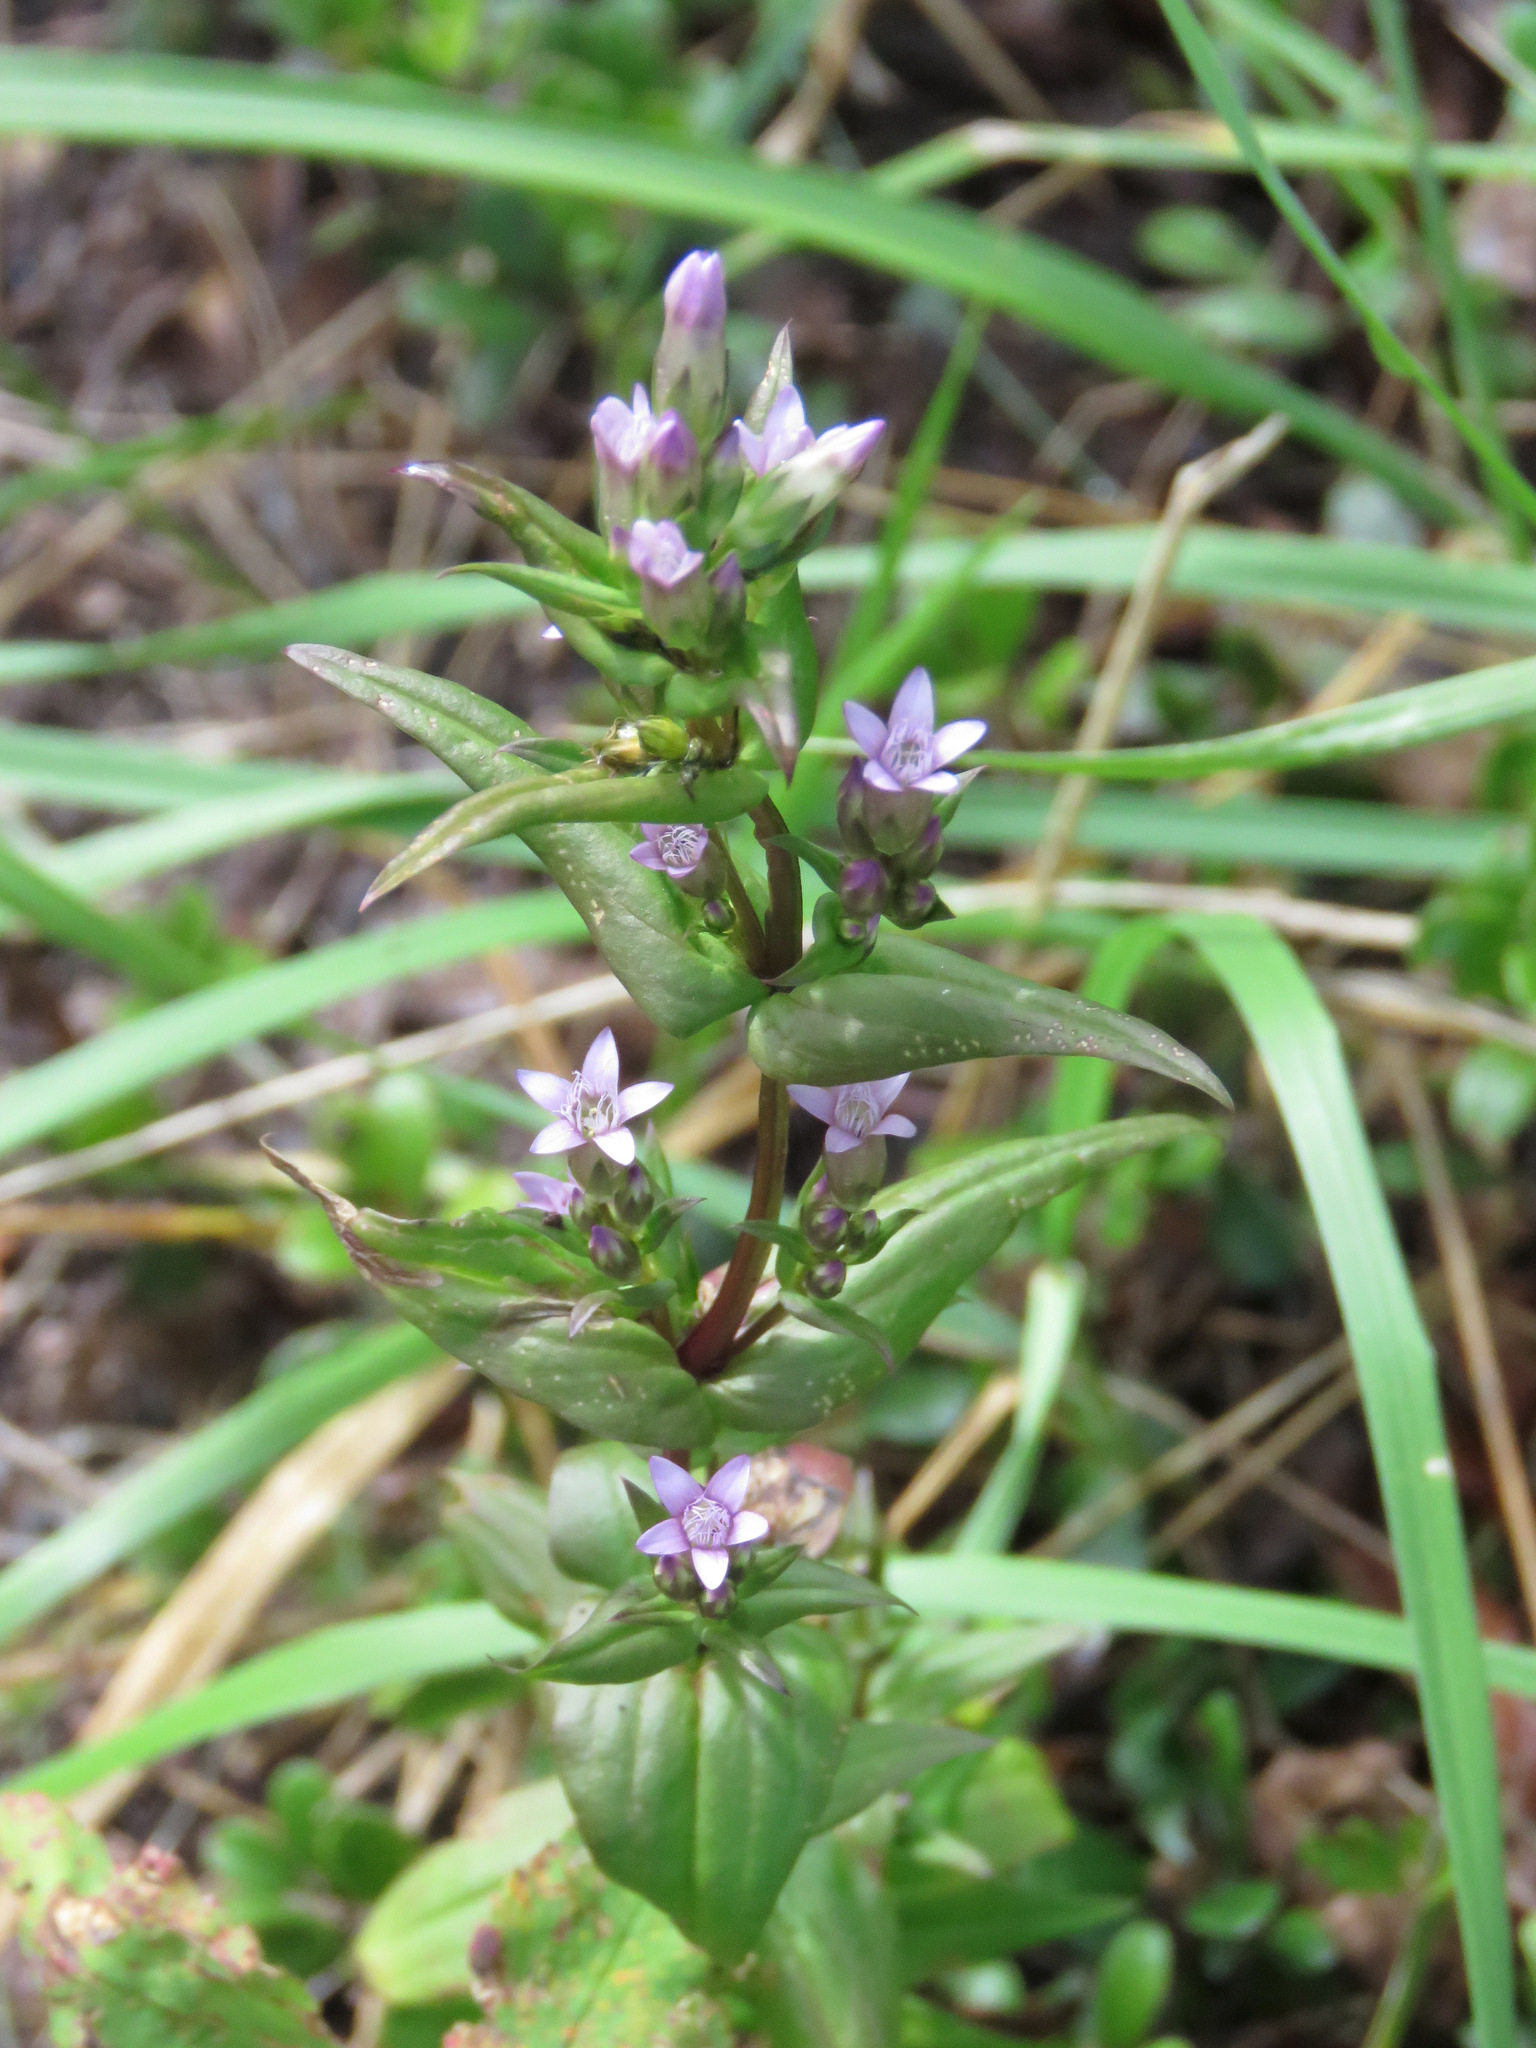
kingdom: Plantae
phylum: Tracheophyta
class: Magnoliopsida
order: Gentianales
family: Gentianaceae
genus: Gentianella
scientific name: Gentianella amarella
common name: Autumn gentian
